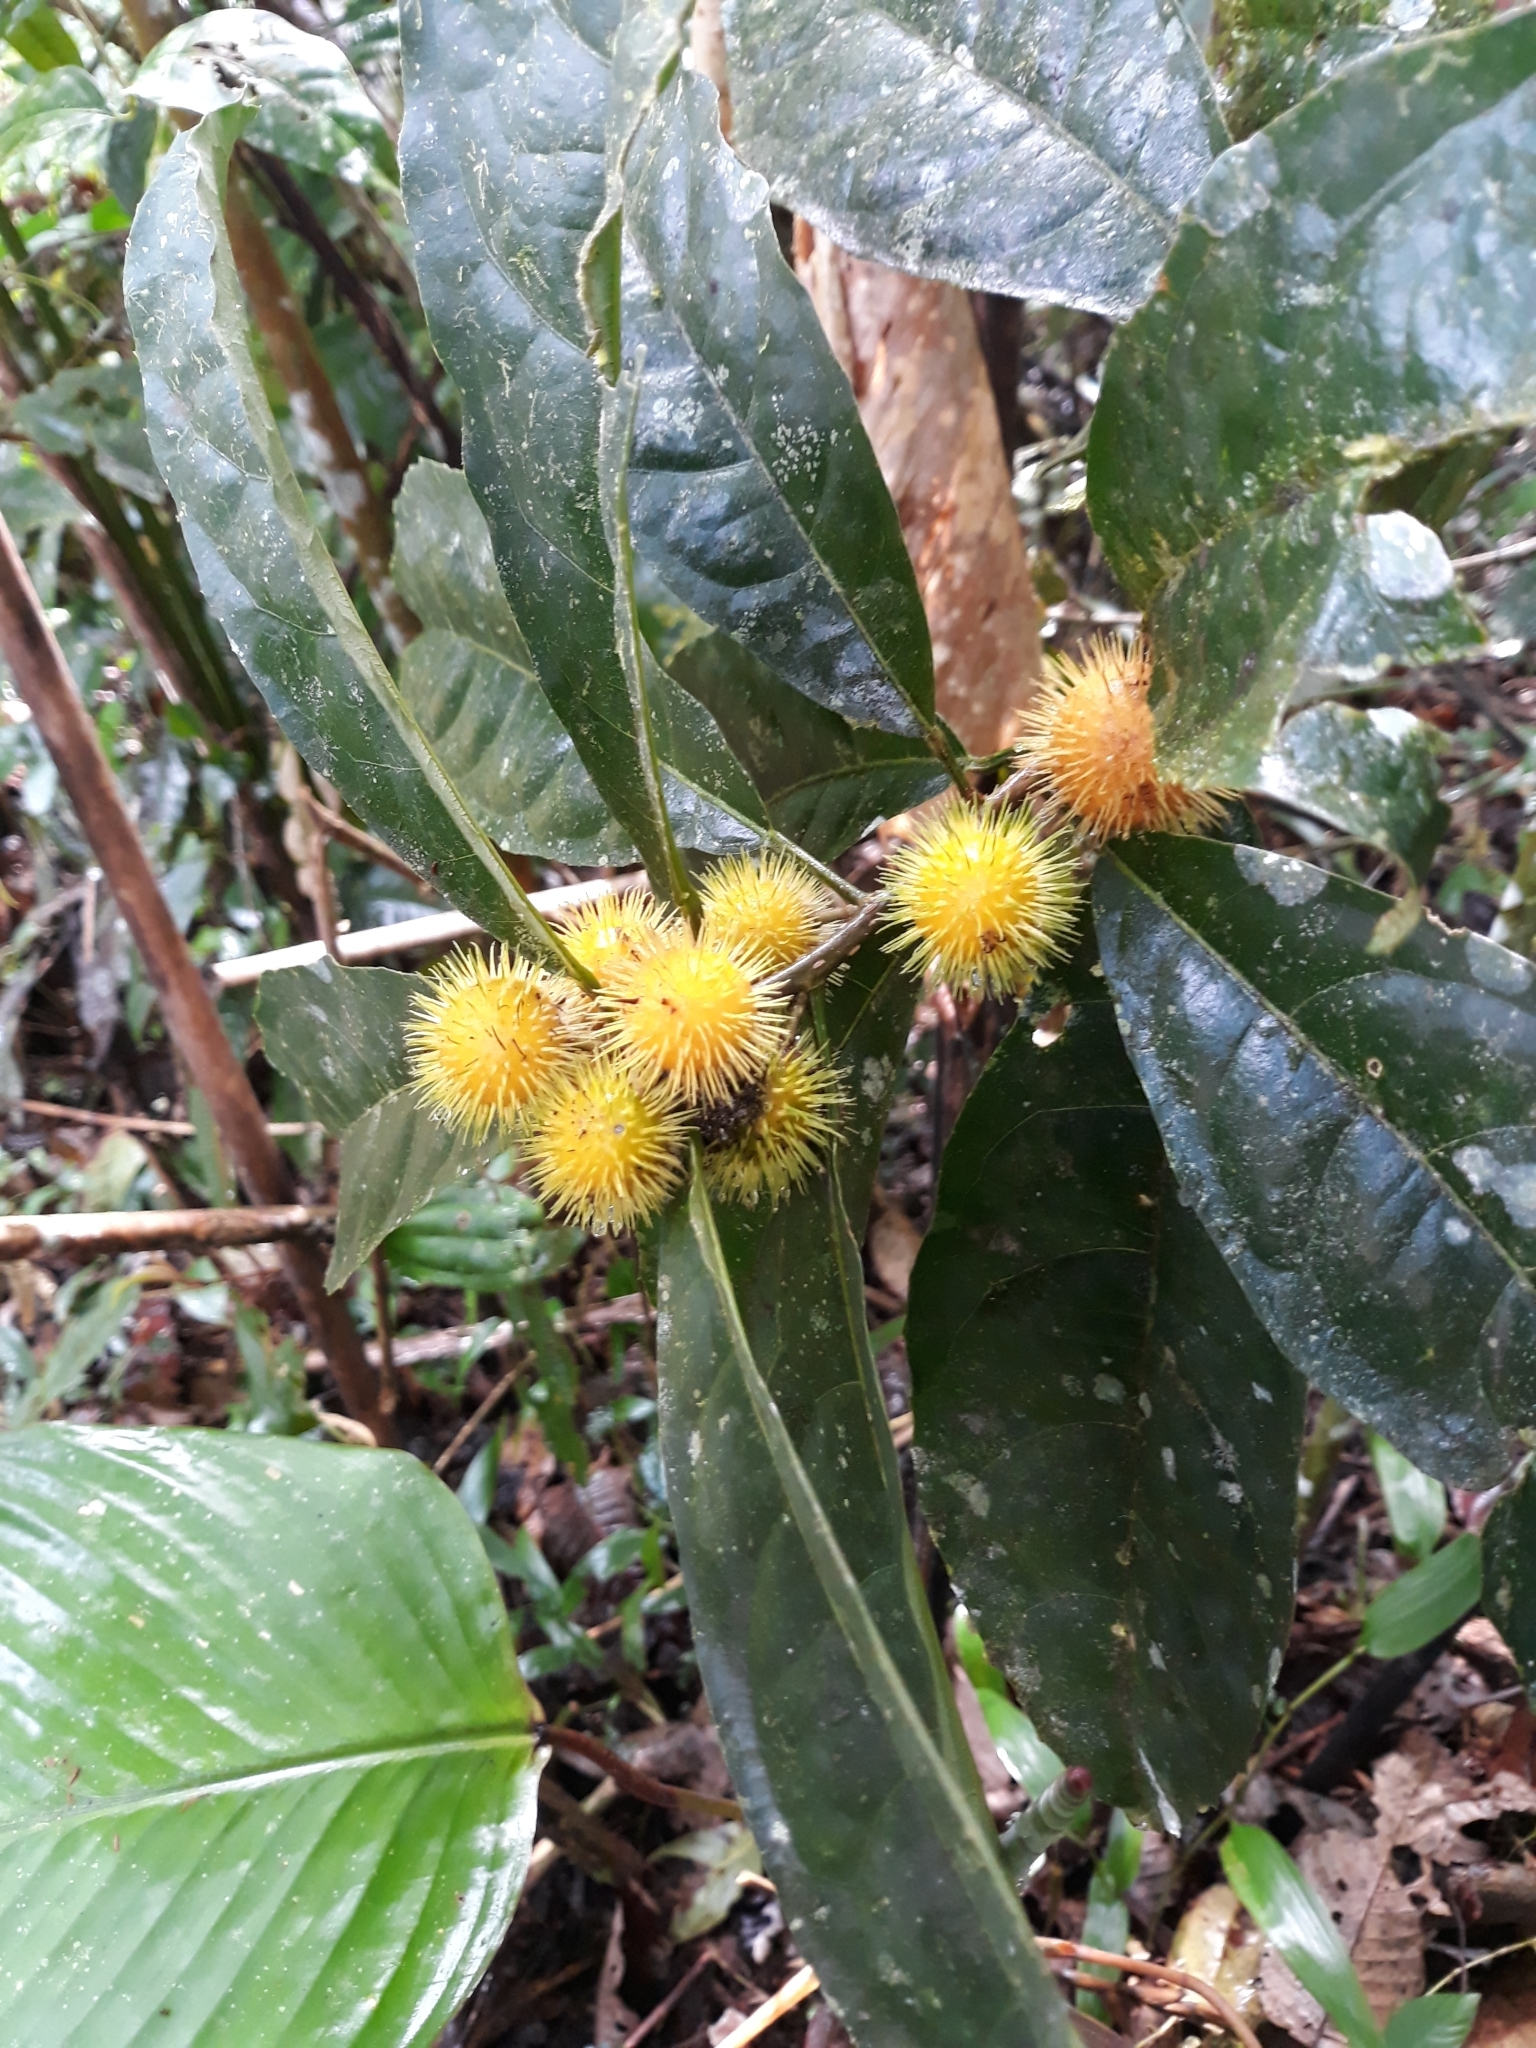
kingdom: Plantae
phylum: Tracheophyta
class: Magnoliopsida
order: Malpighiales
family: Achariaceae
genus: Mayna
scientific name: Mayna odorata
